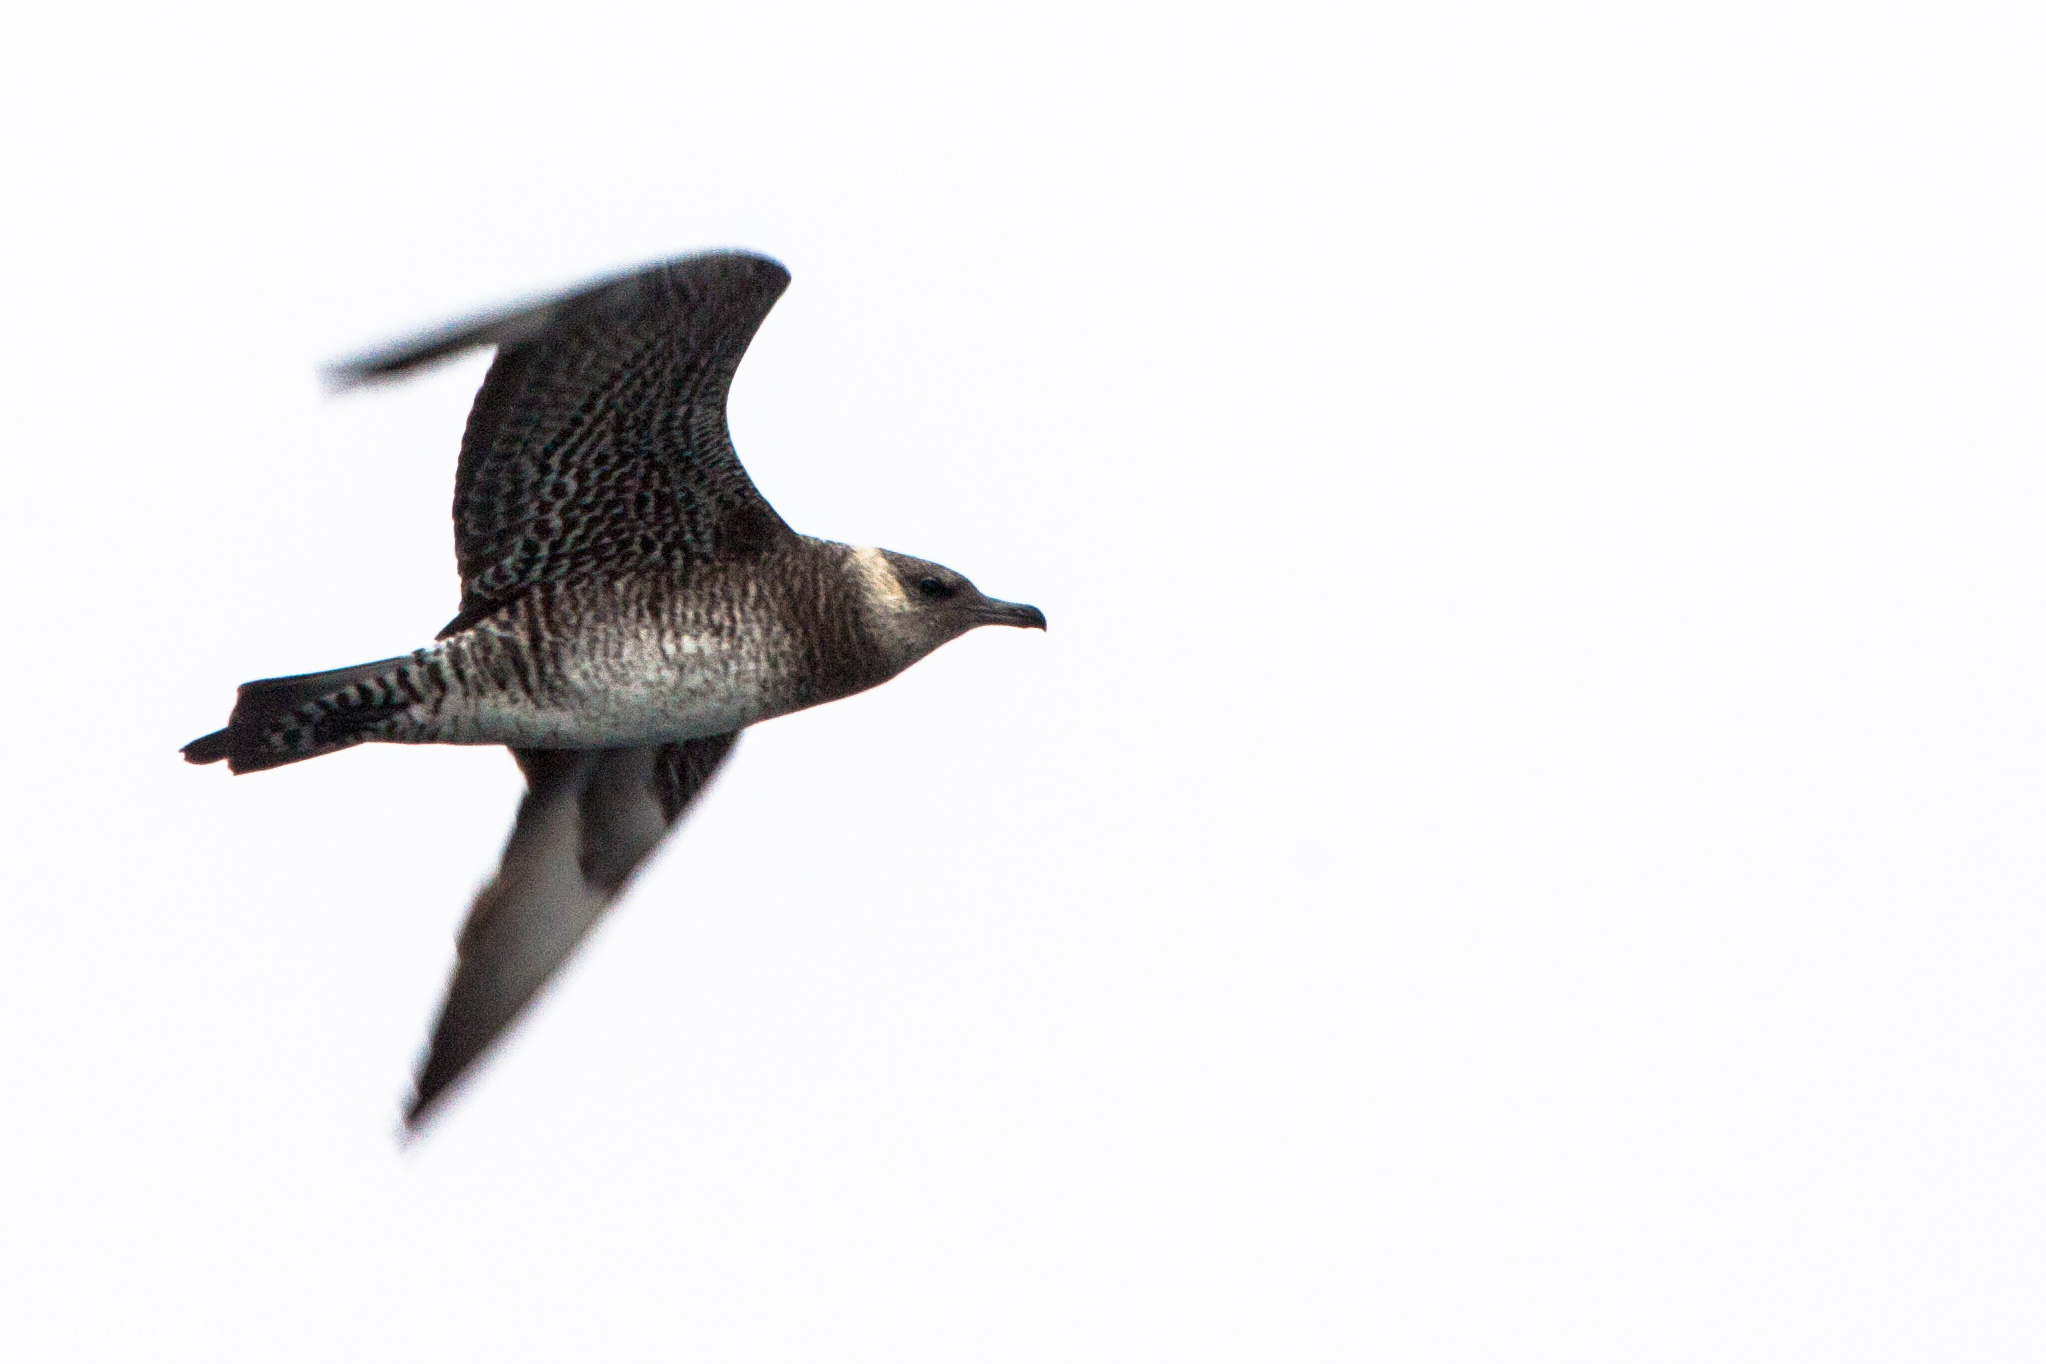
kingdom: Animalia
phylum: Chordata
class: Aves
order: Charadriiformes
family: Stercorariidae
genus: Stercorarius
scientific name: Stercorarius pomarinus
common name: Pomarine jaeger
